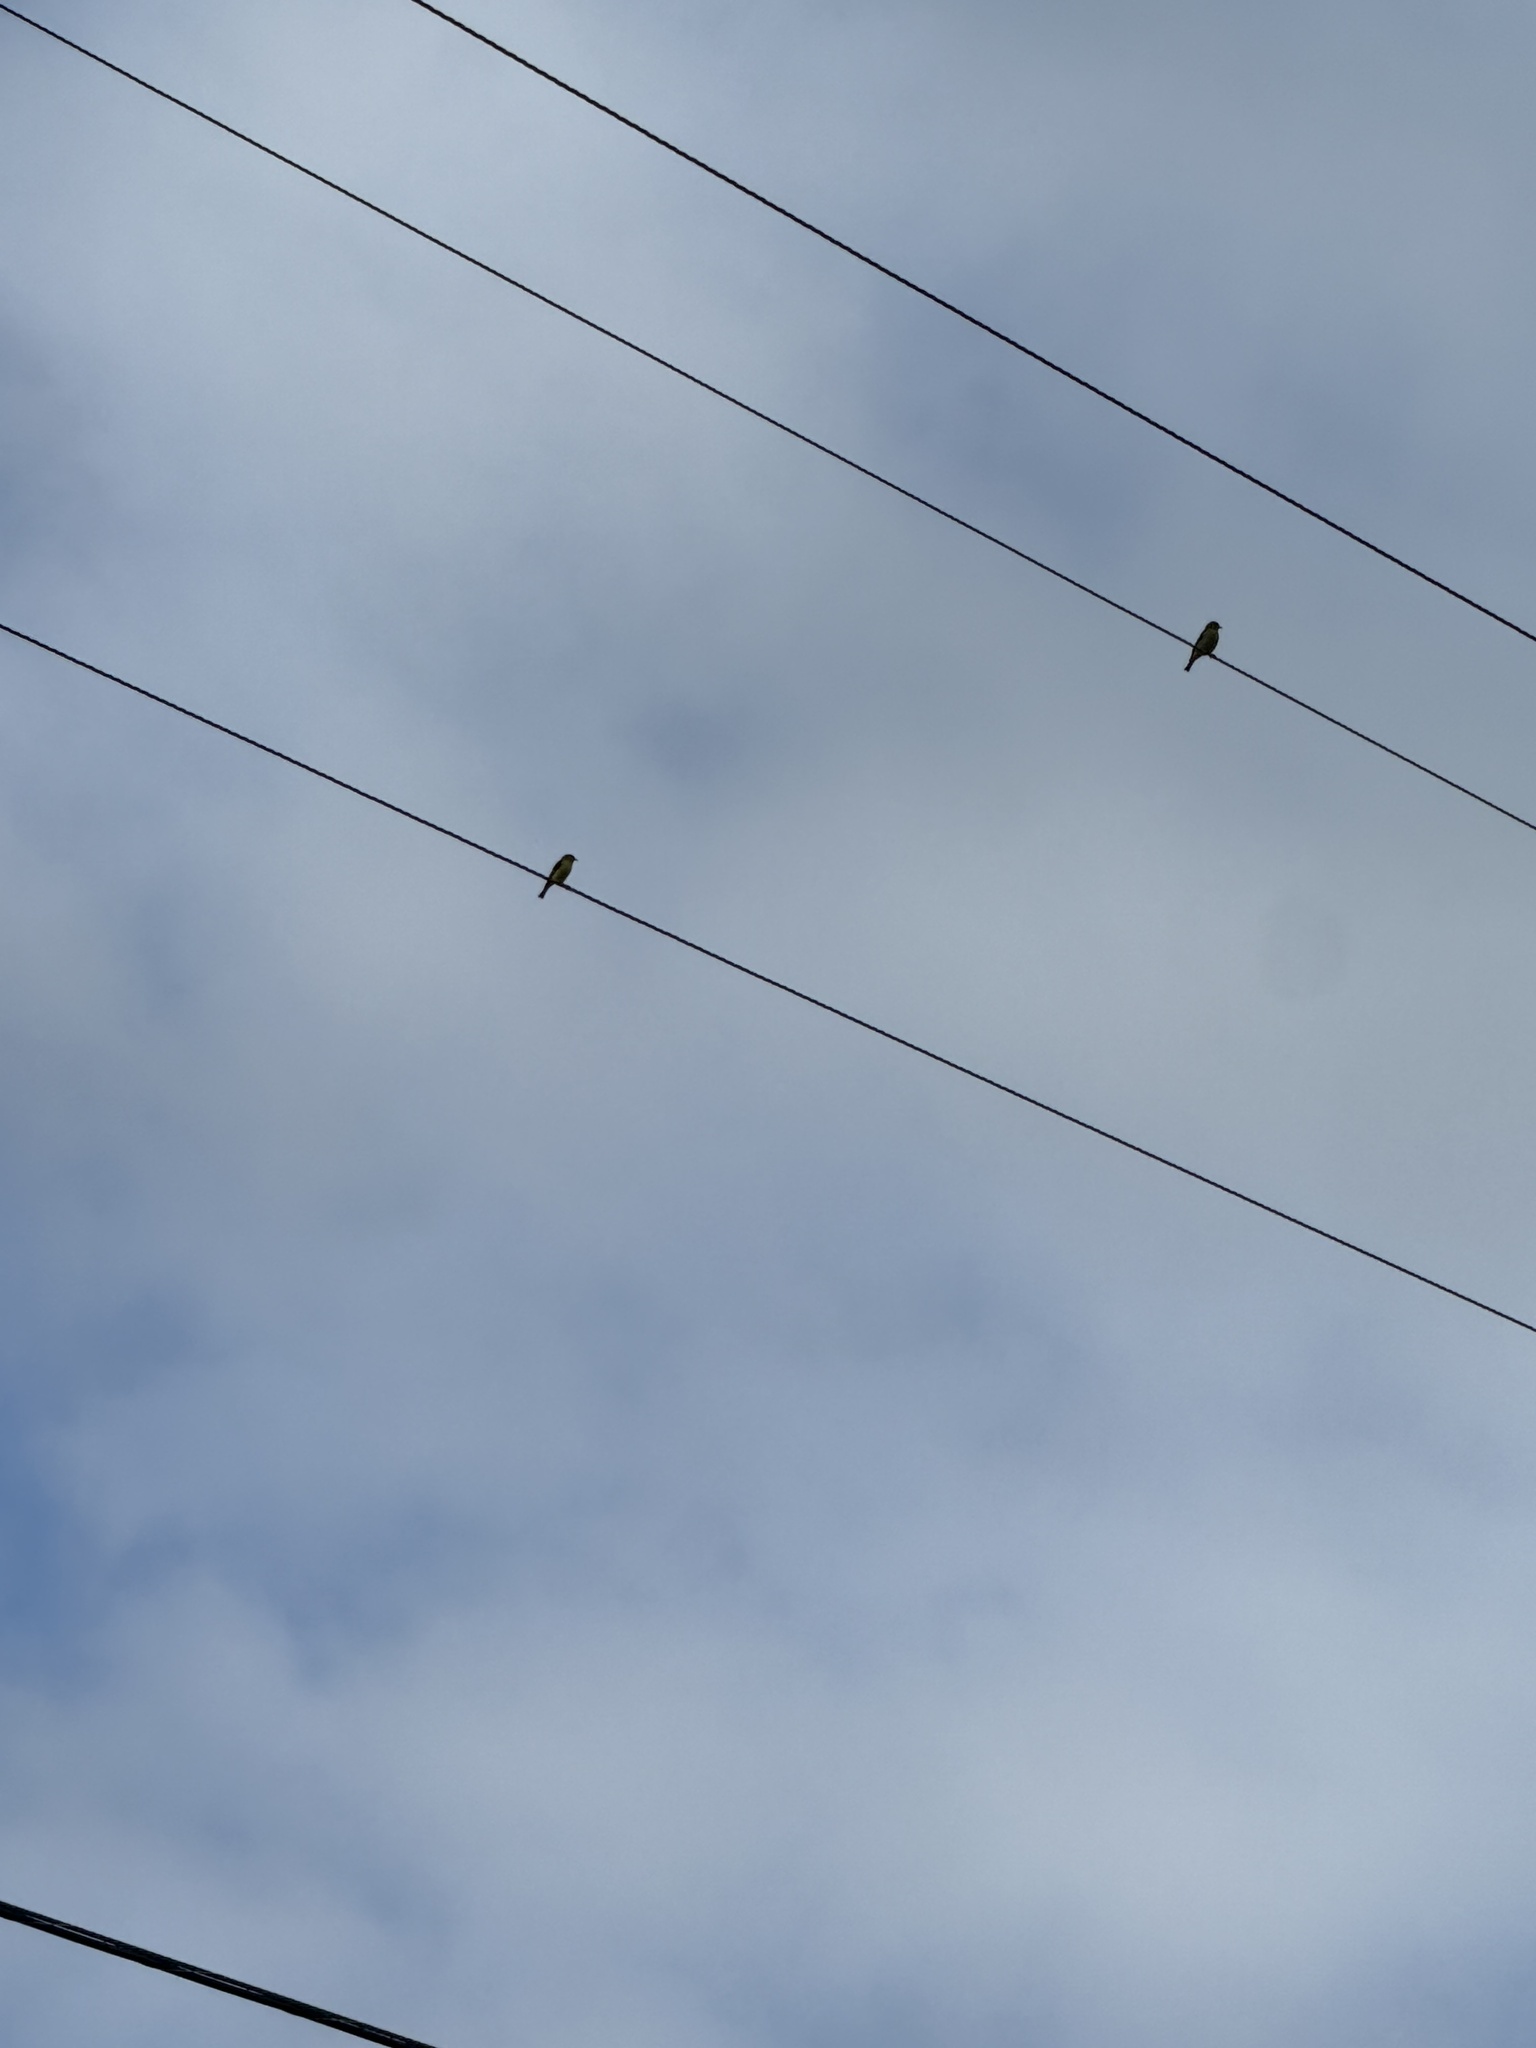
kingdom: Animalia
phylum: Chordata
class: Aves
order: Passeriformes
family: Fringillidae
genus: Spinus
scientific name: Spinus psaltria
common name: Lesser goldfinch
